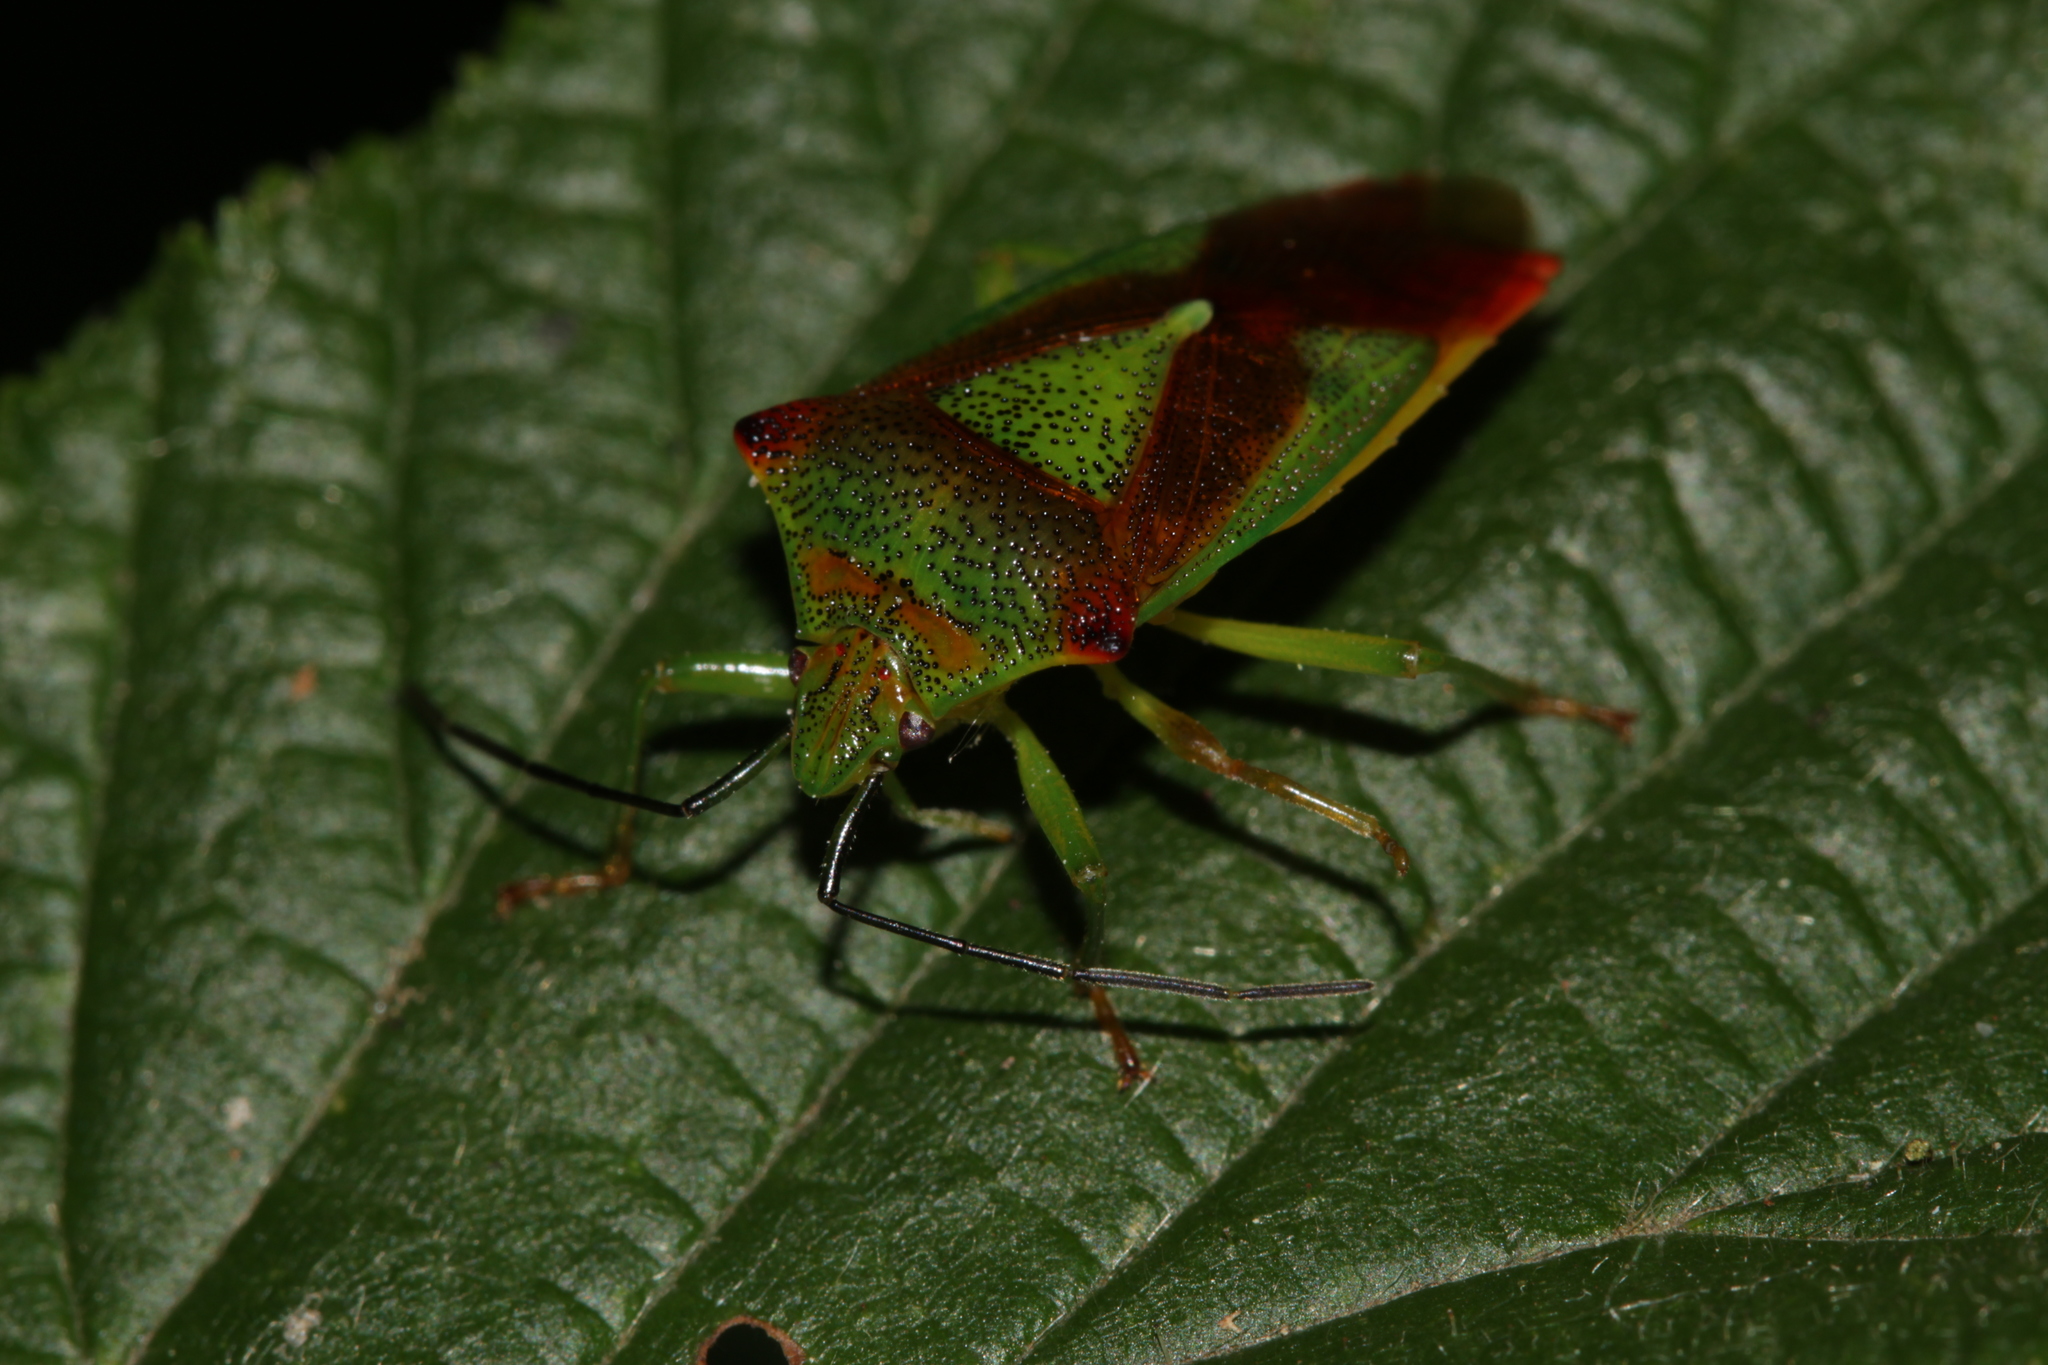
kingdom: Animalia
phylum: Arthropoda
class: Insecta
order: Hemiptera
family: Acanthosomatidae
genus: Acanthosoma
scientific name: Acanthosoma haemorrhoidale
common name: Hawthorn shieldbug
